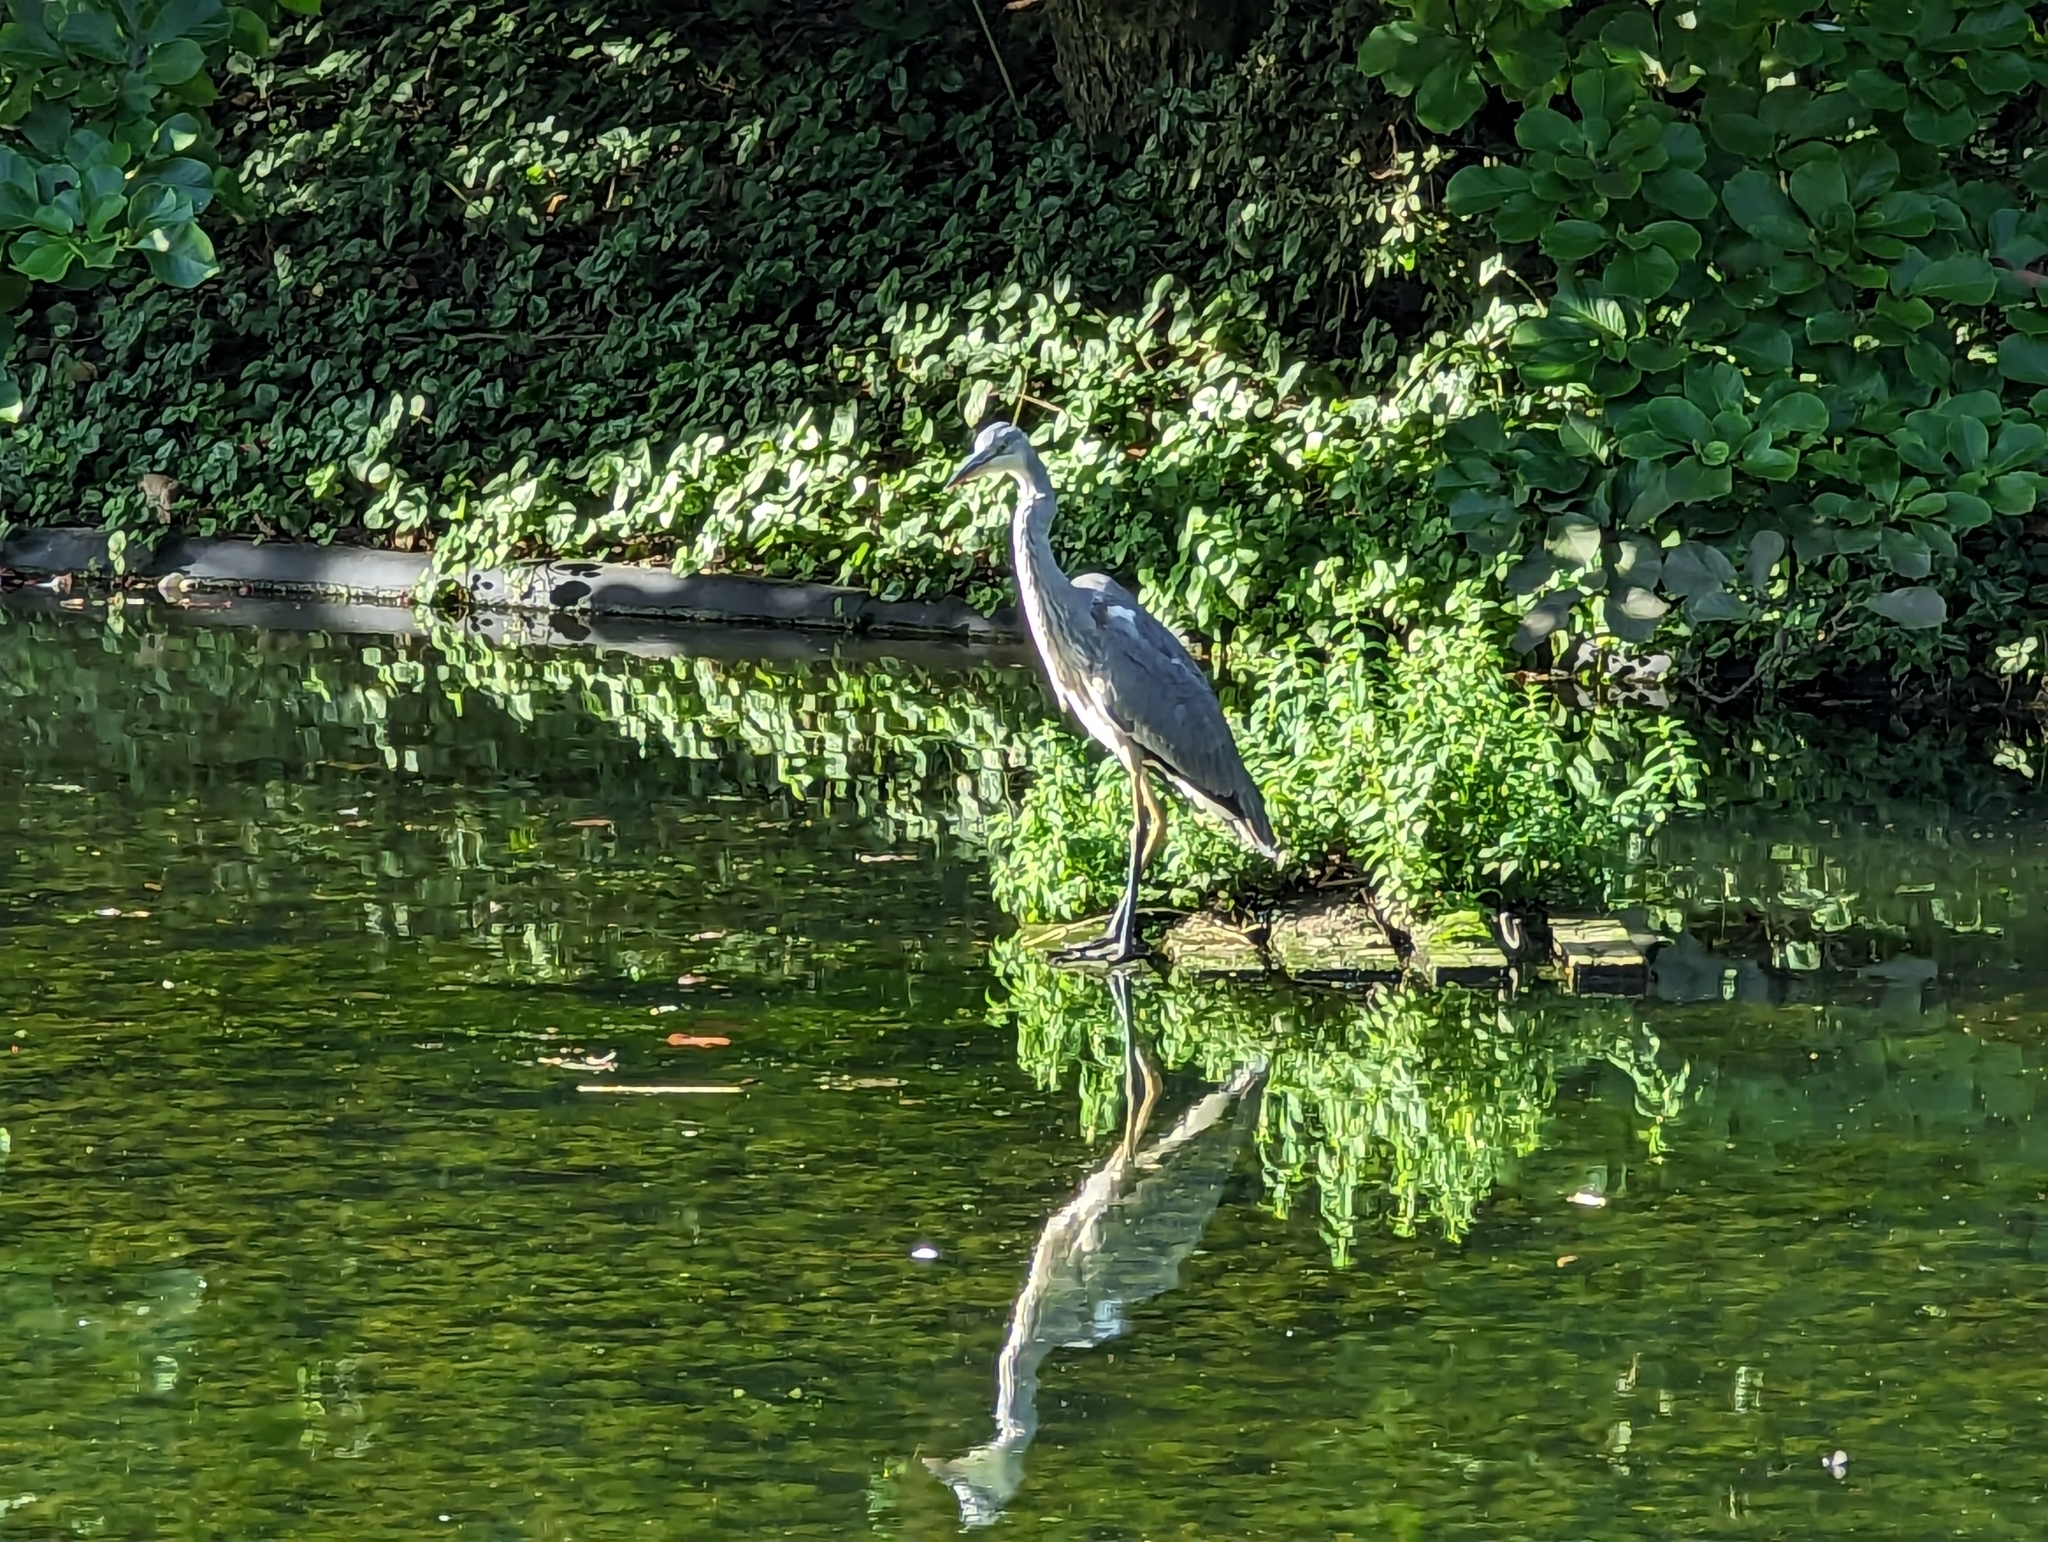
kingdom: Animalia
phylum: Chordata
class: Aves
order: Pelecaniformes
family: Ardeidae
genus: Ardea
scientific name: Ardea cinerea
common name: Grey heron
